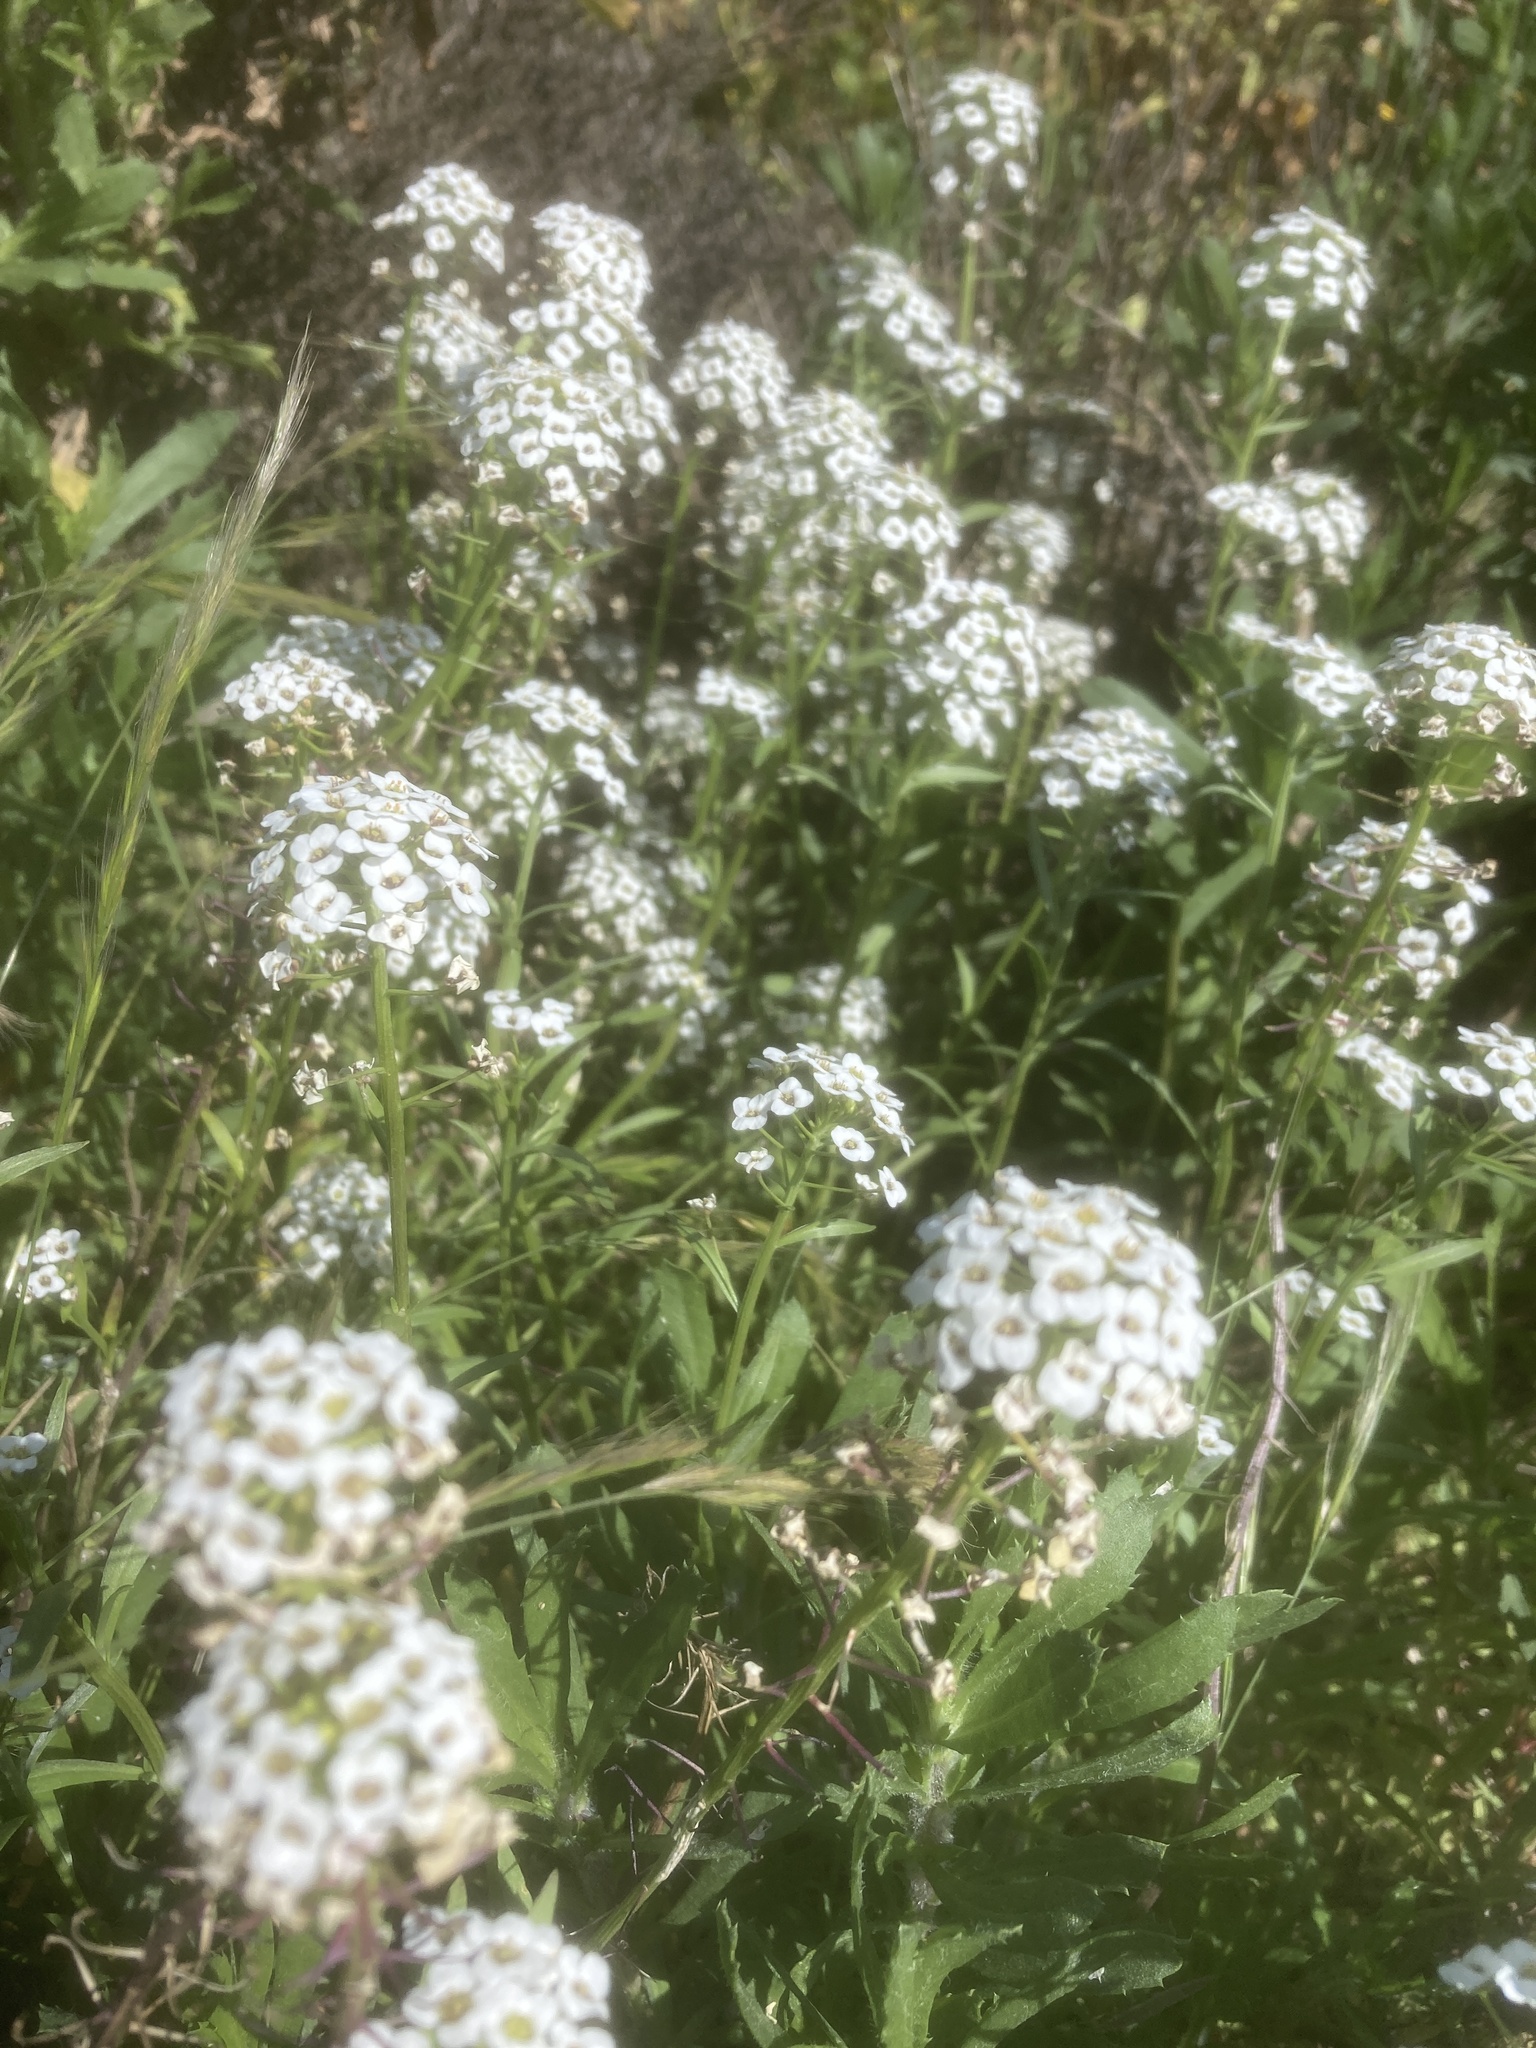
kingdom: Plantae
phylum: Tracheophyta
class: Magnoliopsida
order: Brassicales
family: Brassicaceae
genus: Lobularia
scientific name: Lobularia maritima
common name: Sweet alison
